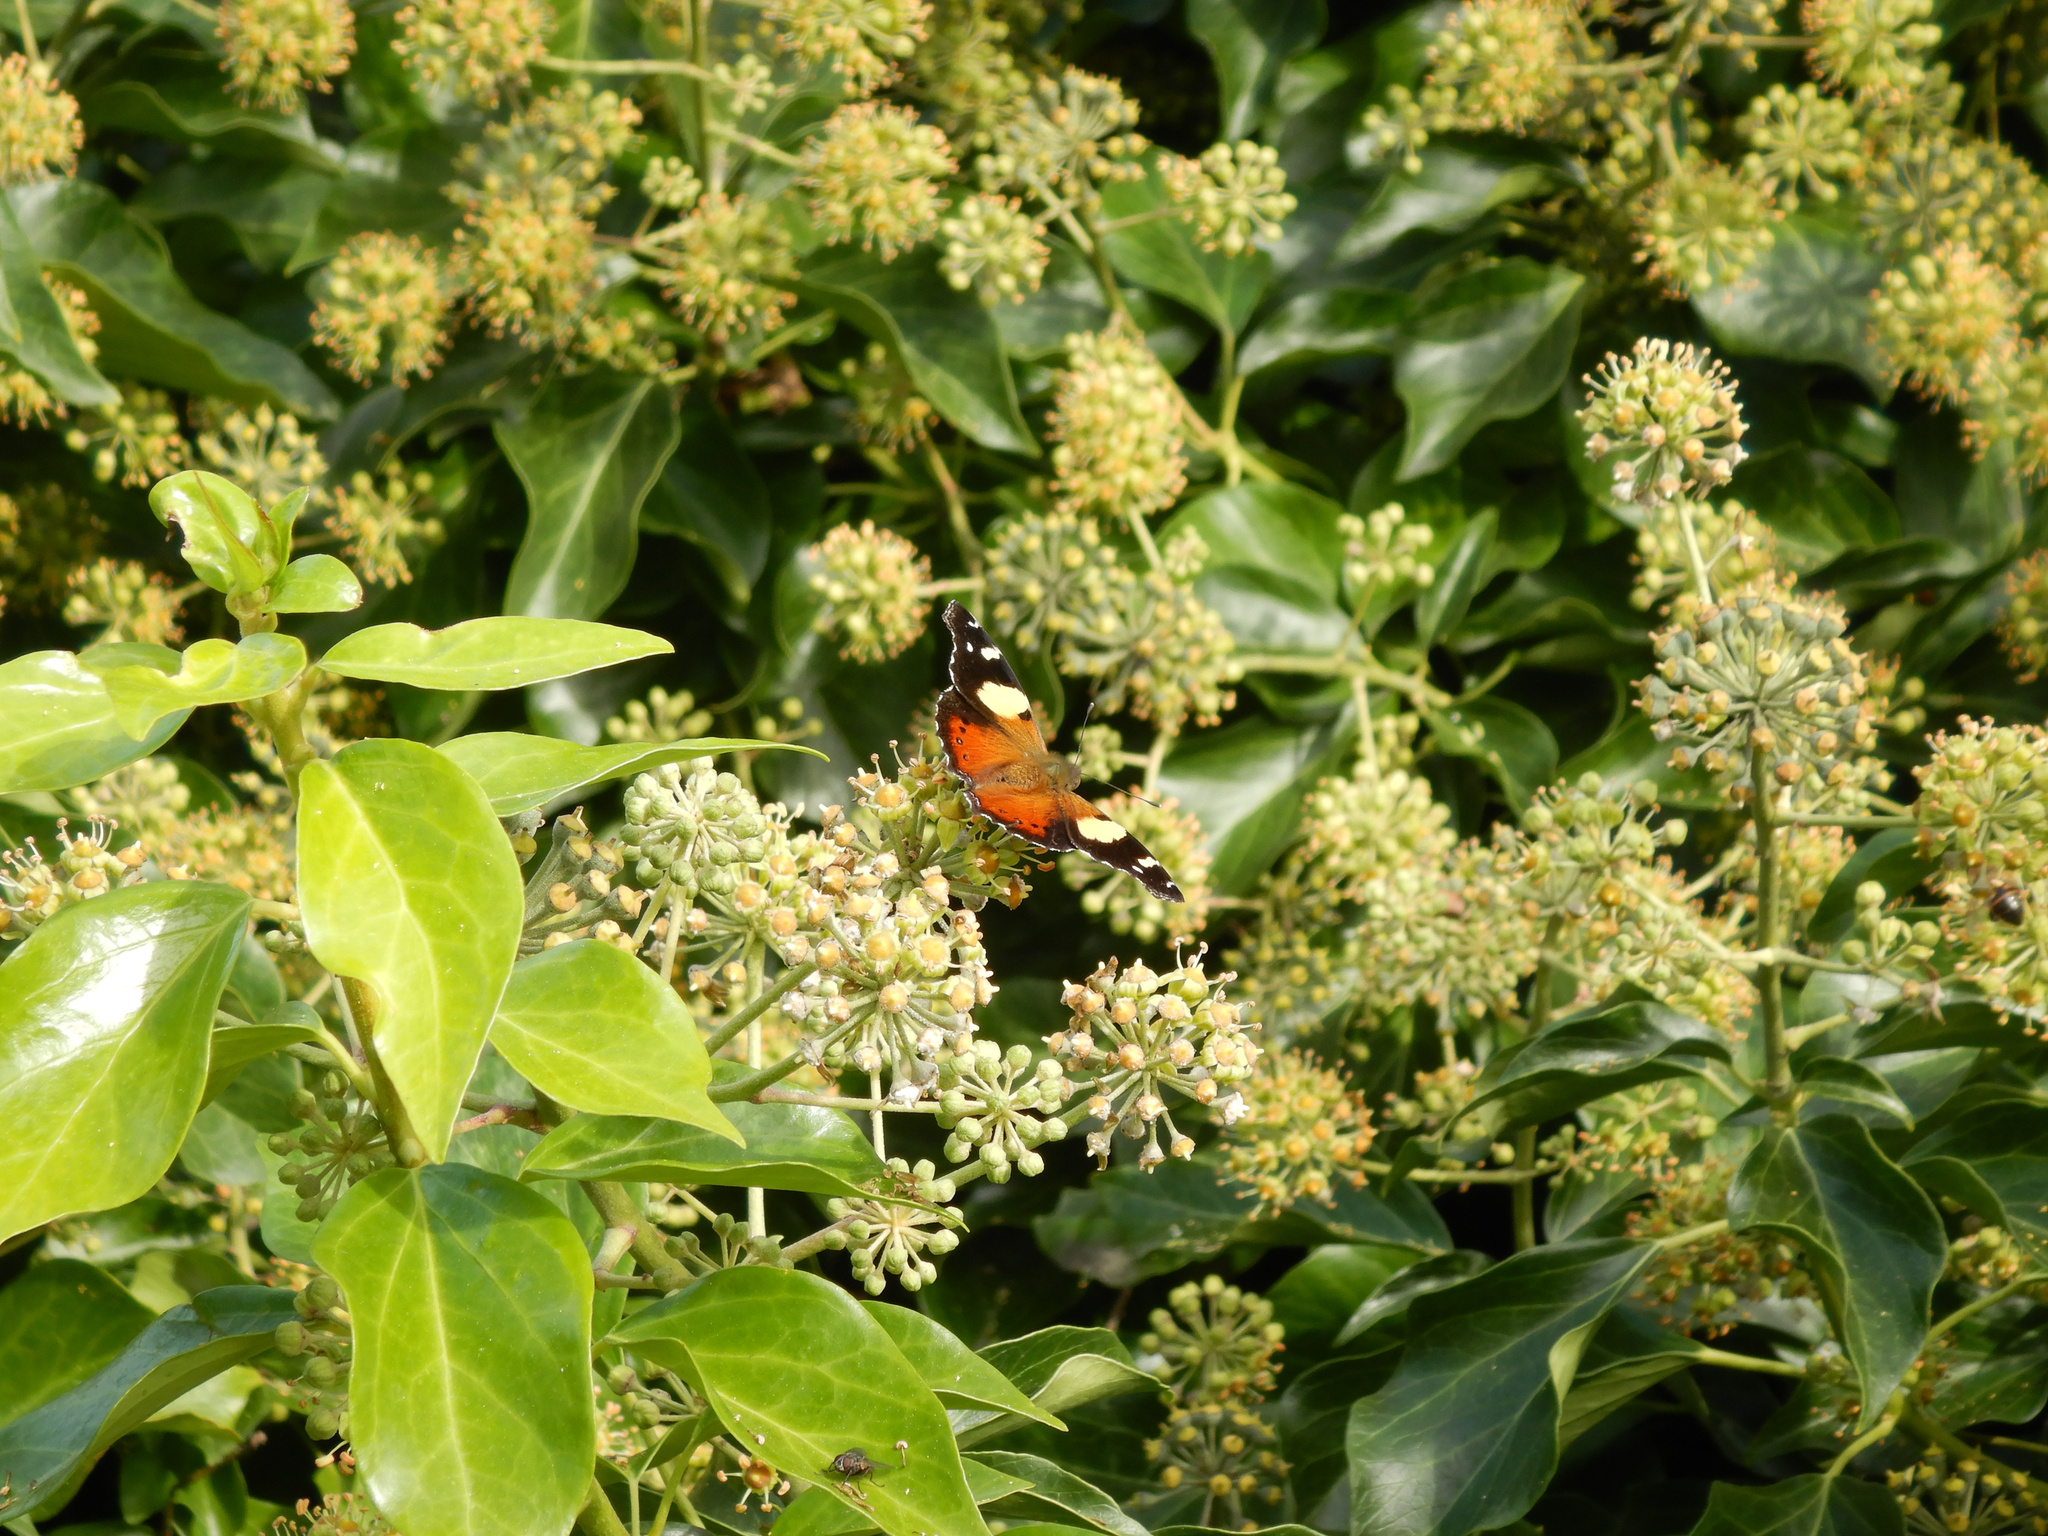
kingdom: Animalia
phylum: Arthropoda
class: Insecta
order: Lepidoptera
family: Nymphalidae
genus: Vanessa
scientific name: Vanessa itea
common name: Yellow admiral
